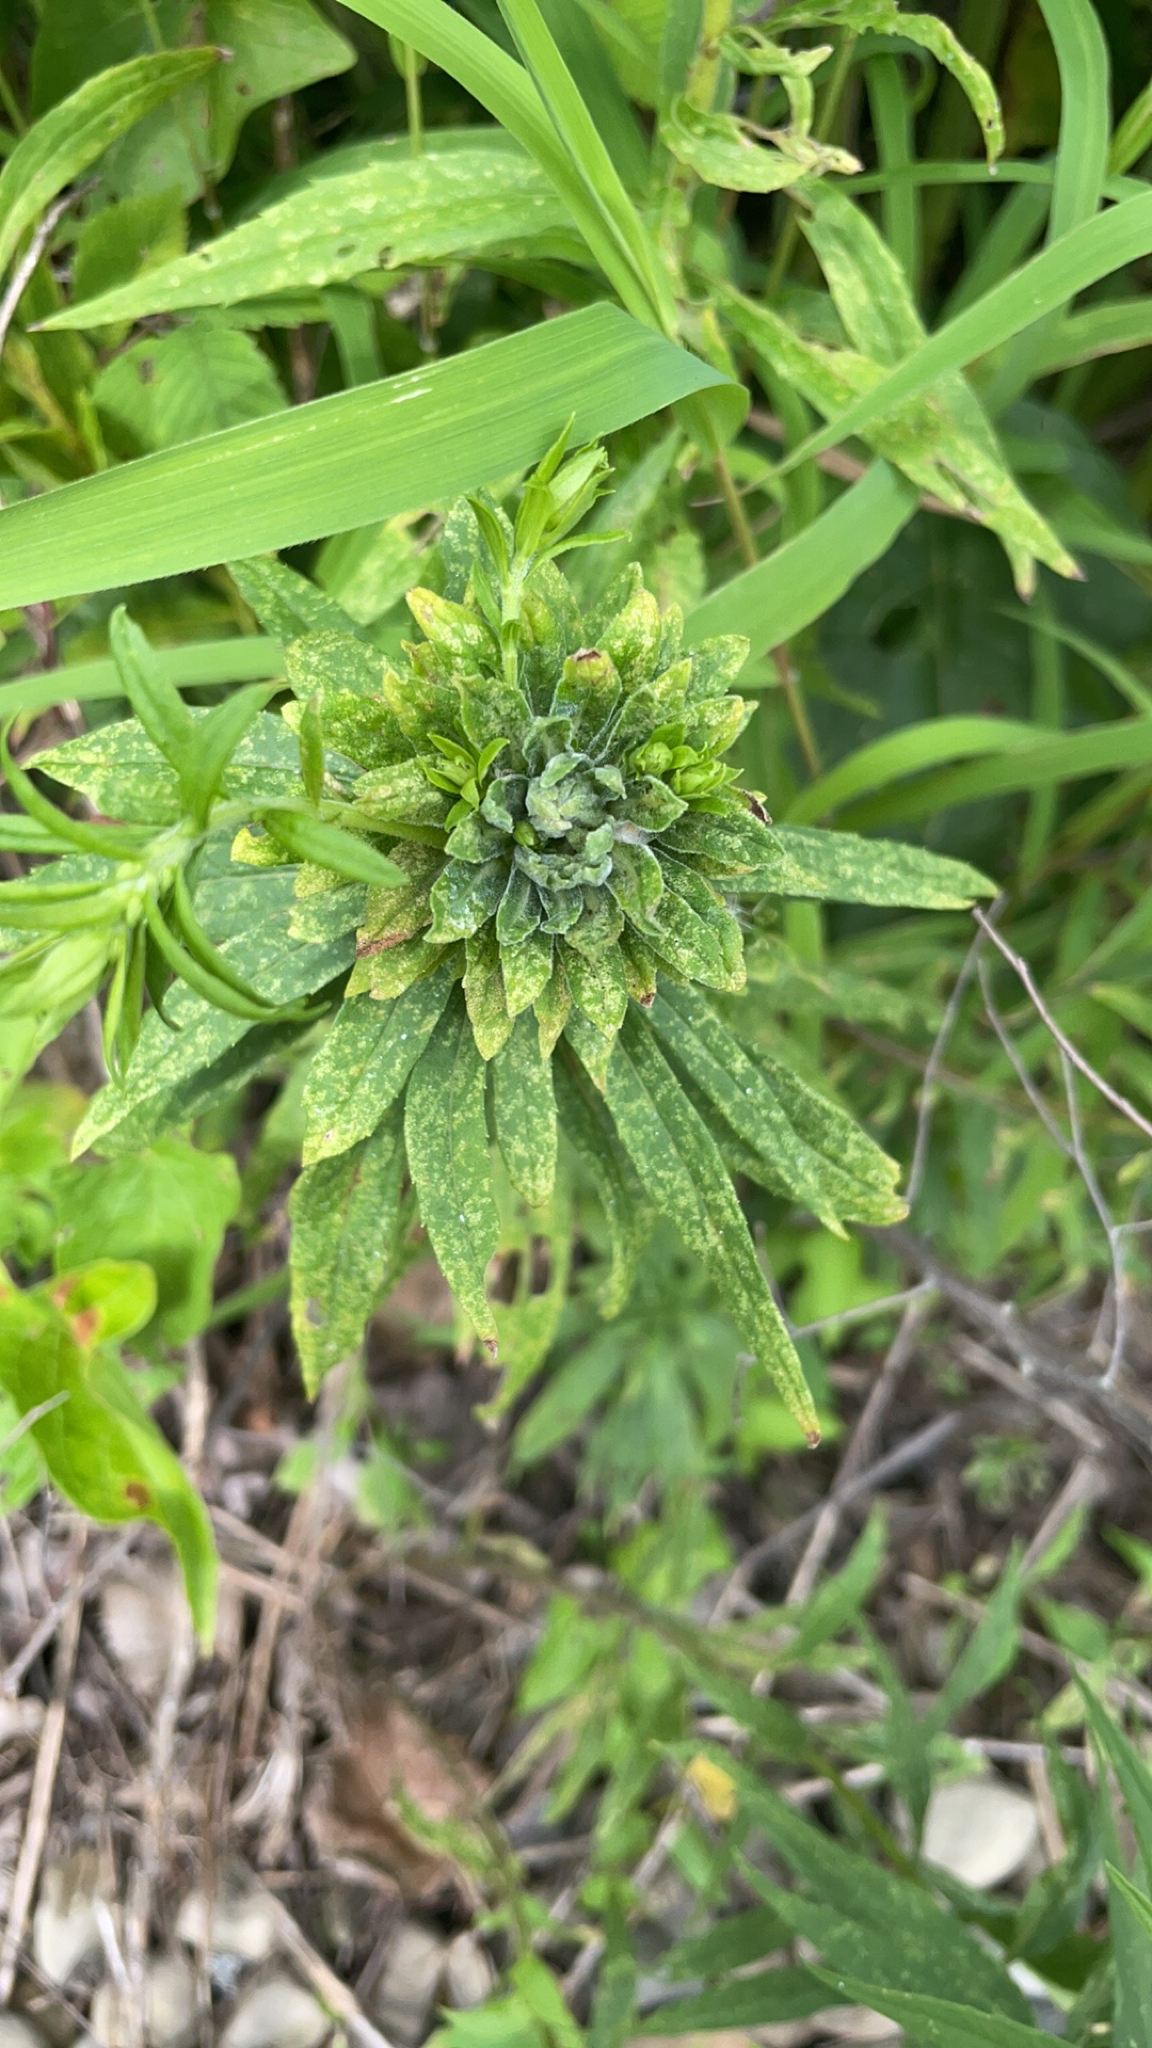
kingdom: Animalia
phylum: Arthropoda
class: Insecta
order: Diptera
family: Tephritidae
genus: Procecidochares
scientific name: Procecidochares atra
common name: Goldenrod brussels sprout gall fly
